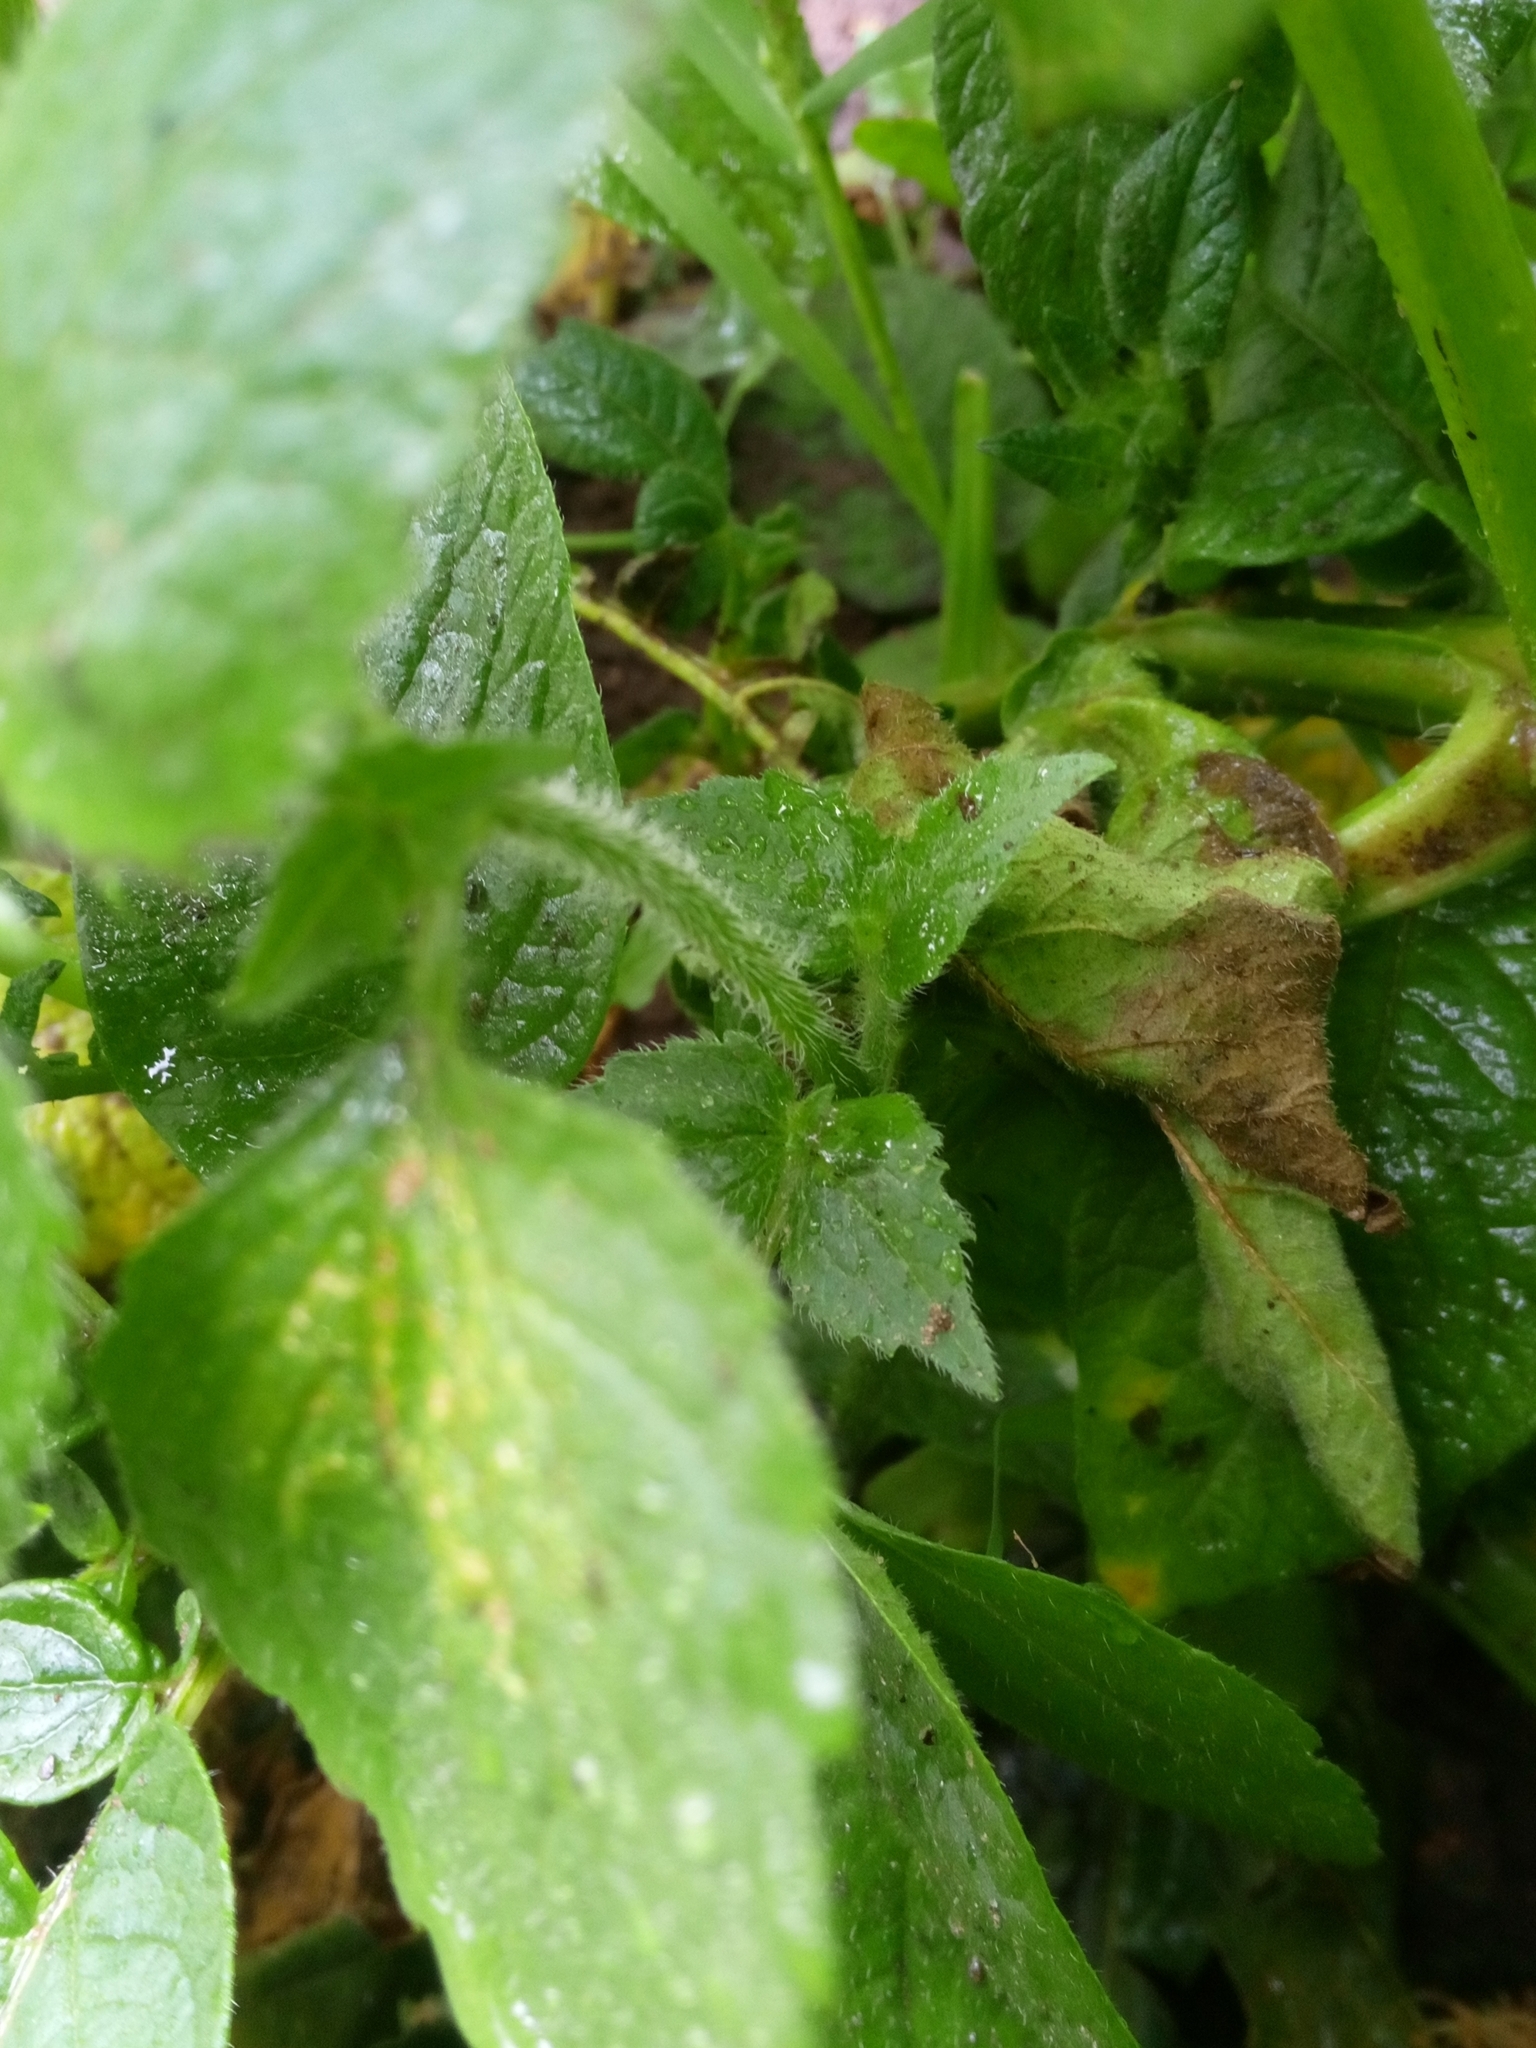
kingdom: Plantae
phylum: Tracheophyta
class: Magnoliopsida
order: Asterales
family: Asteraceae
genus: Galinsoga
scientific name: Galinsoga quadriradiata
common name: Shaggy soldier
